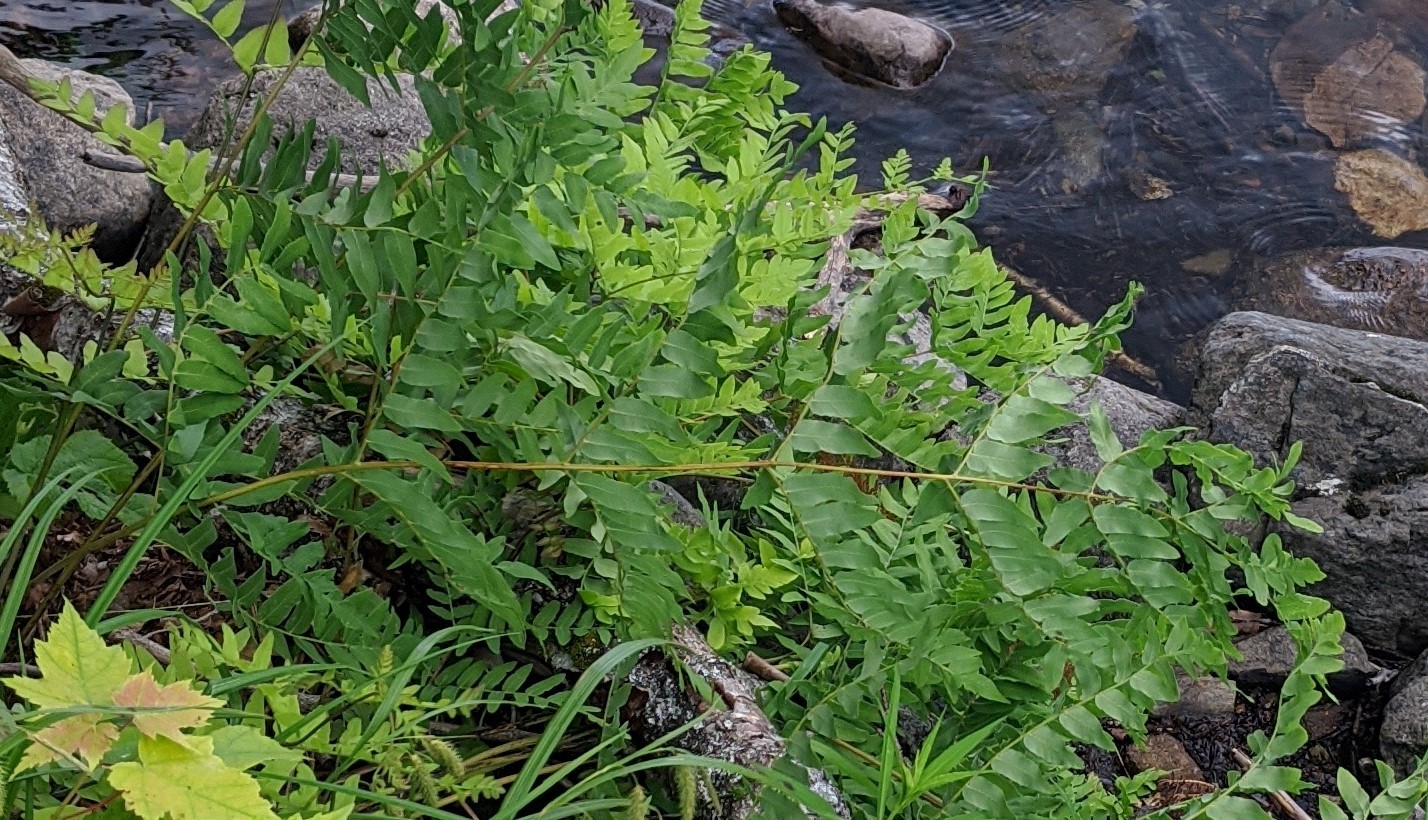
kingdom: Plantae
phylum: Tracheophyta
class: Polypodiopsida
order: Osmundales
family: Osmundaceae
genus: Osmunda
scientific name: Osmunda spectabilis
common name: American royal fern
